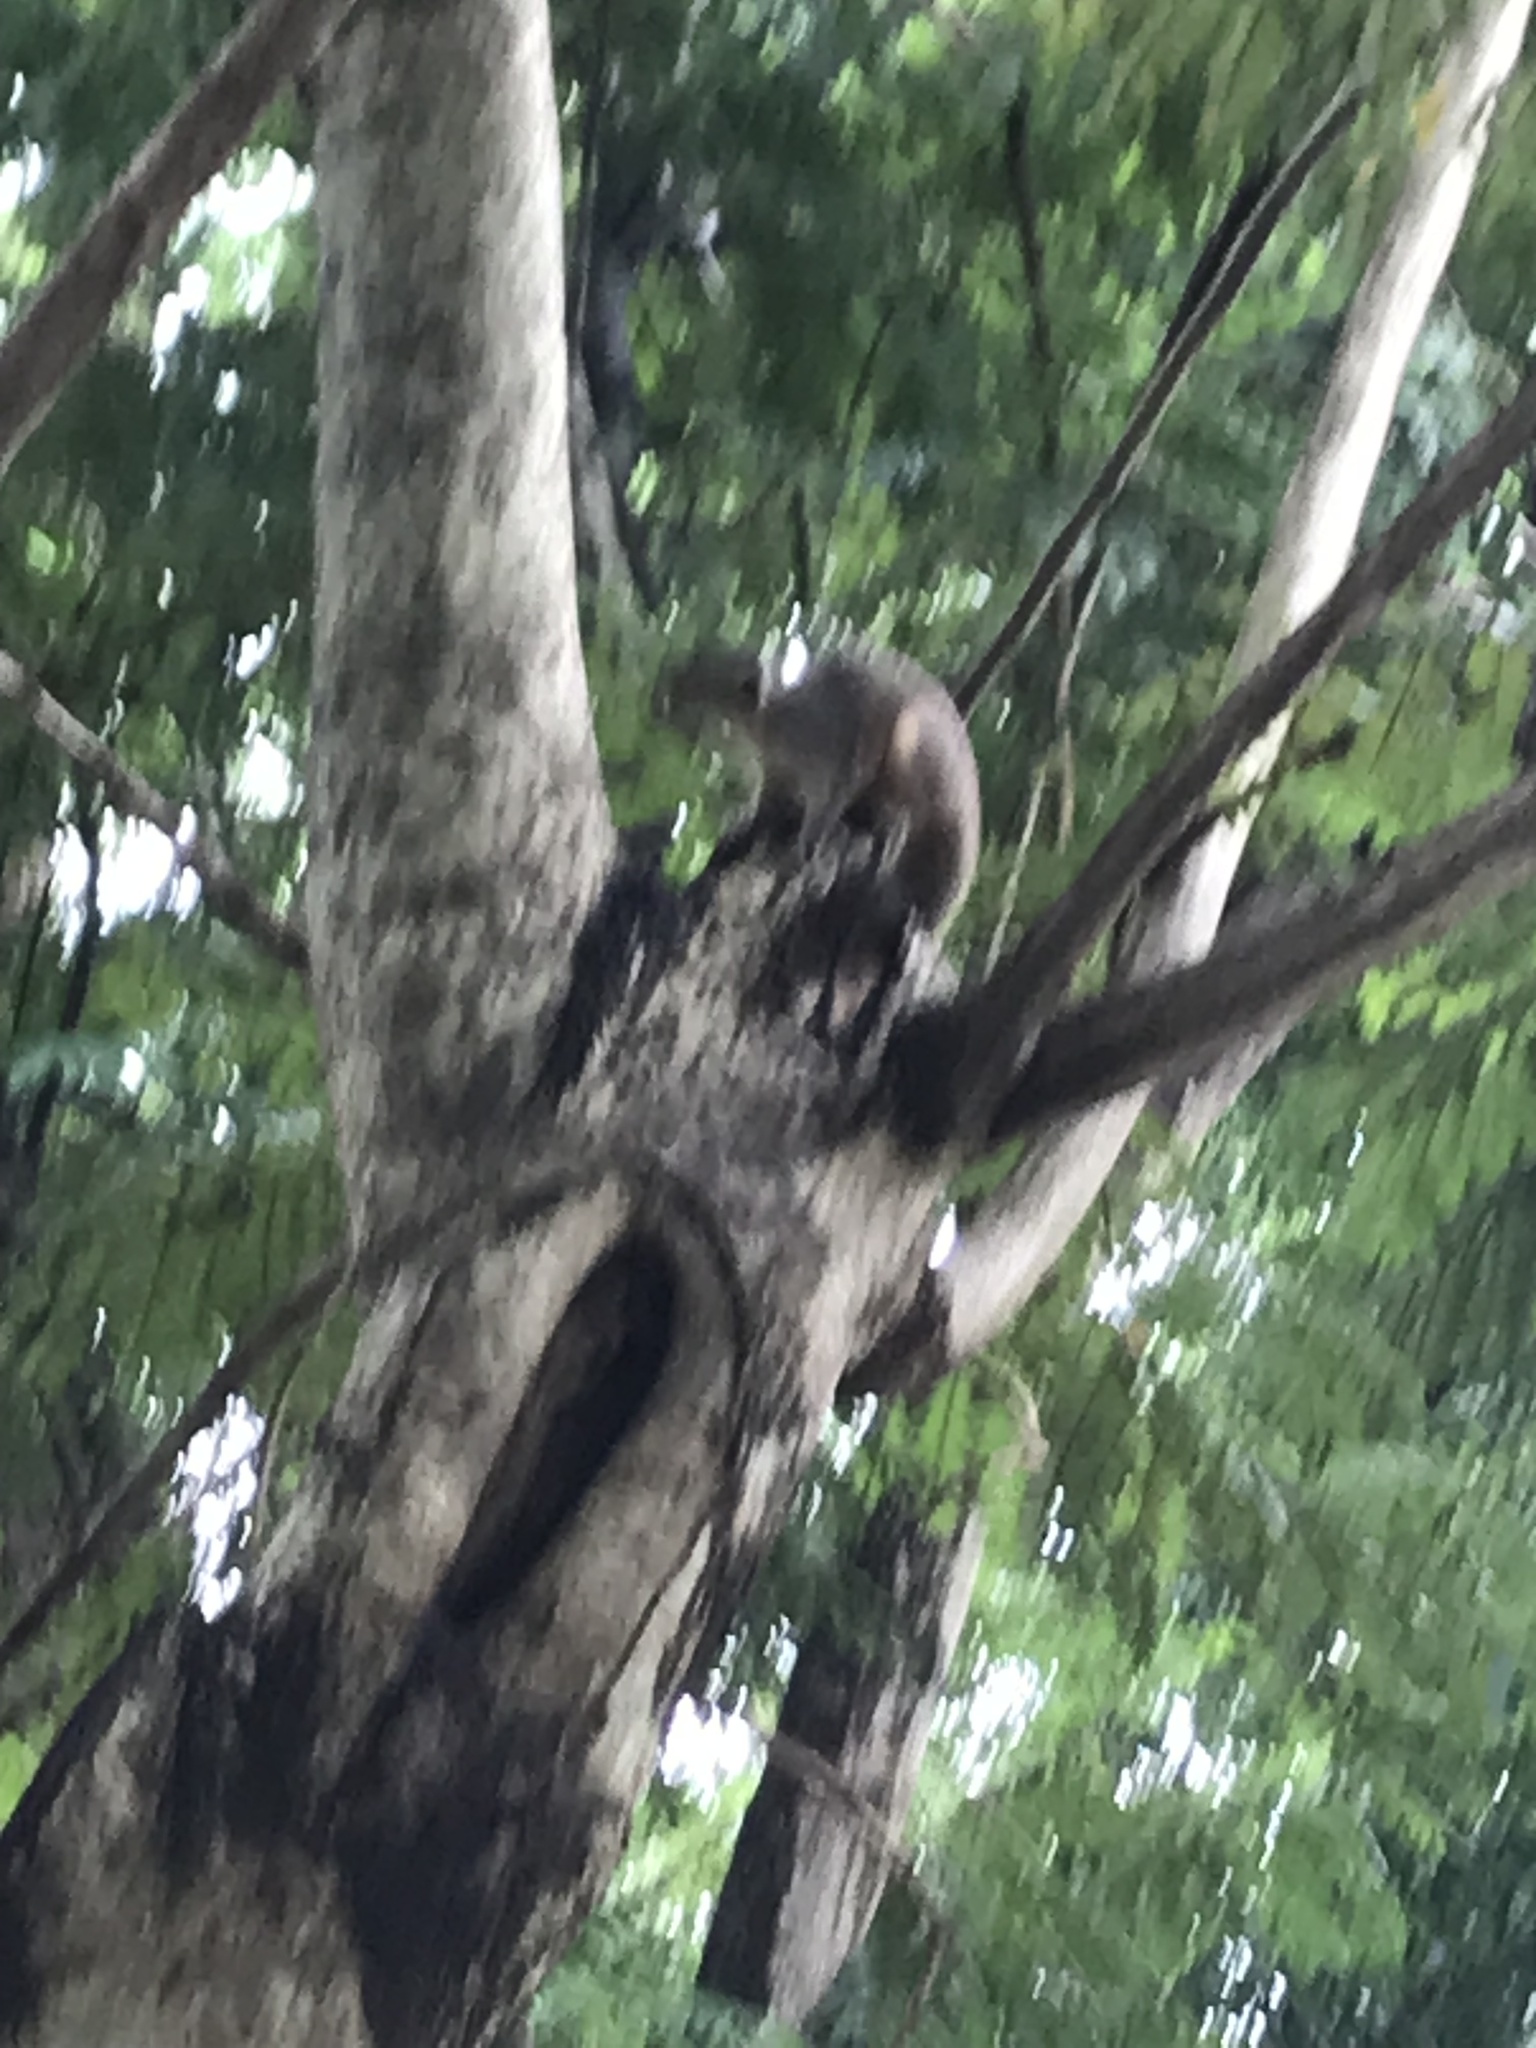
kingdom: Animalia
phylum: Chordata
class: Mammalia
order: Rodentia
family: Sciuridae
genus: Callosciurus
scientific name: Callosciurus pygerythrus
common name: Irrawaddy squirrel
